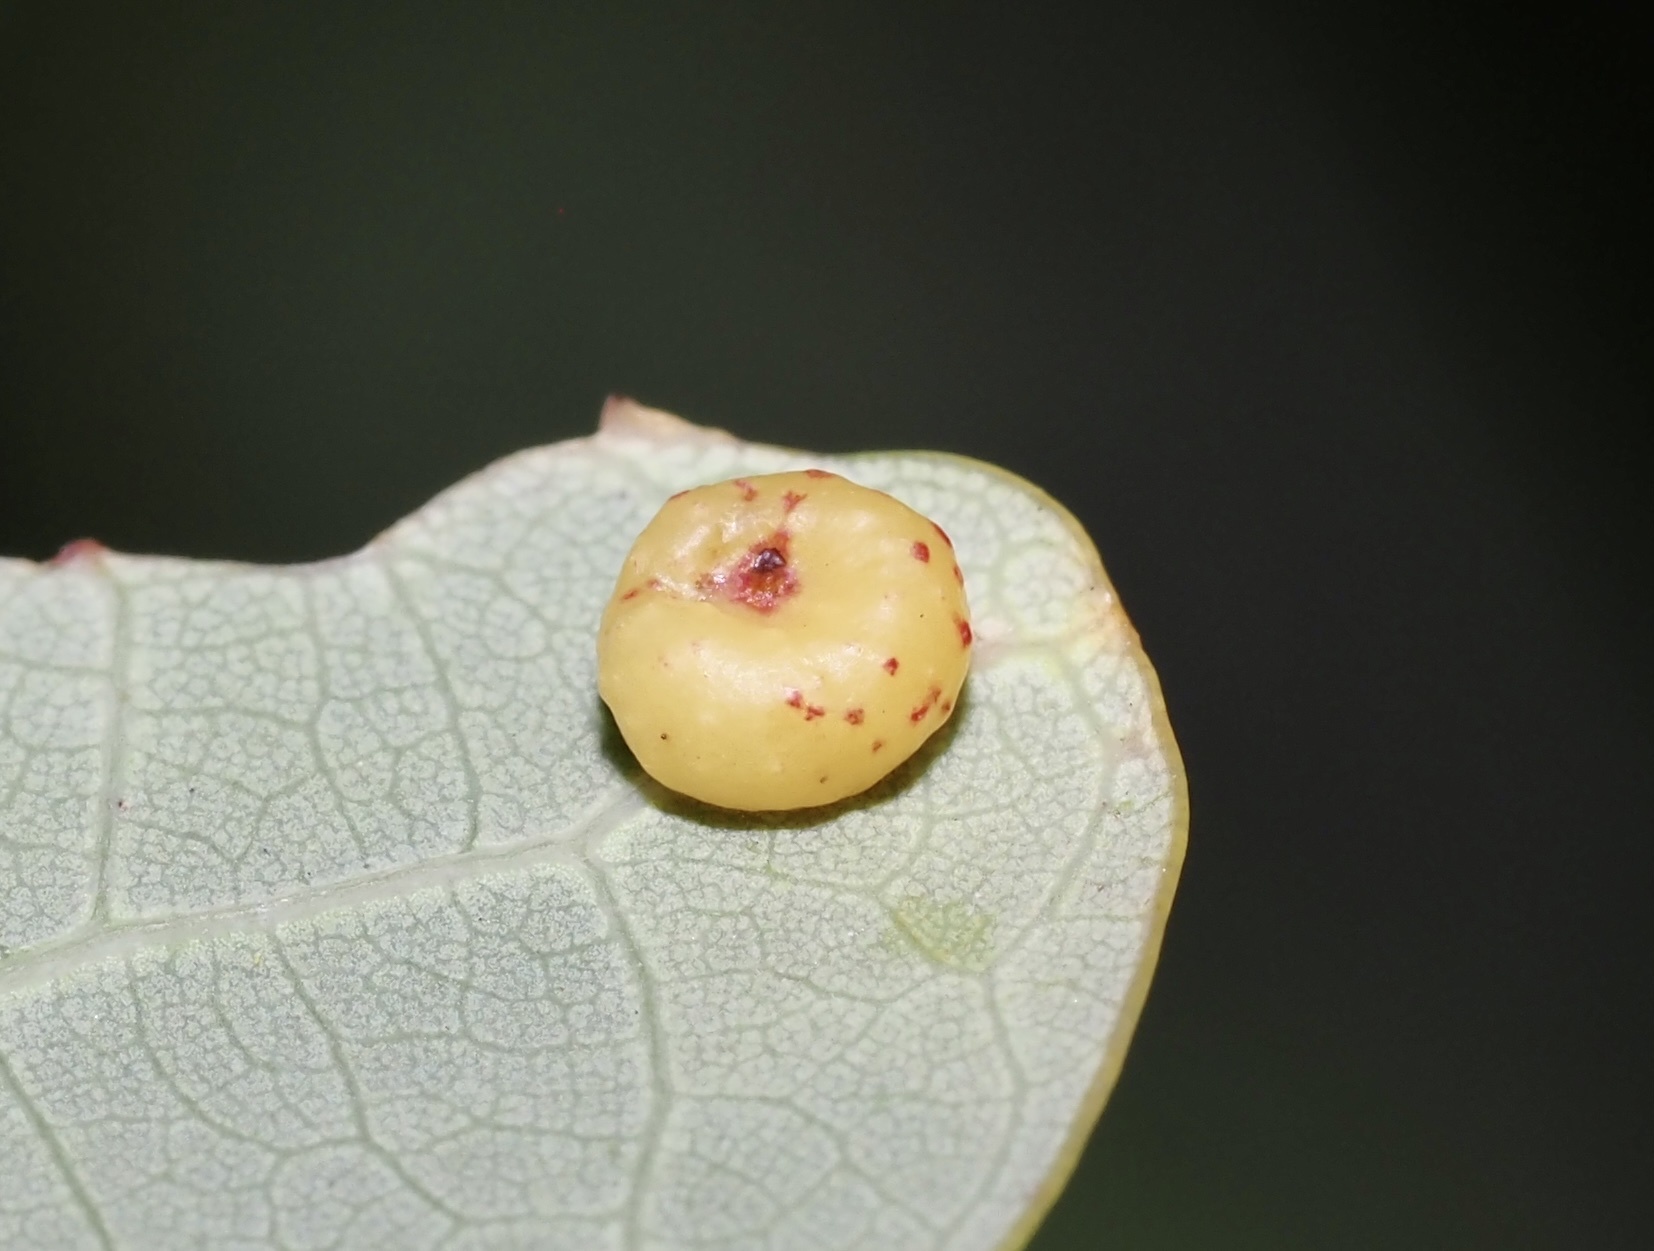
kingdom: Animalia
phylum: Arthropoda
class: Insecta
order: Hymenoptera
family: Cynipidae
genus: Andricus
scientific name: Andricus
